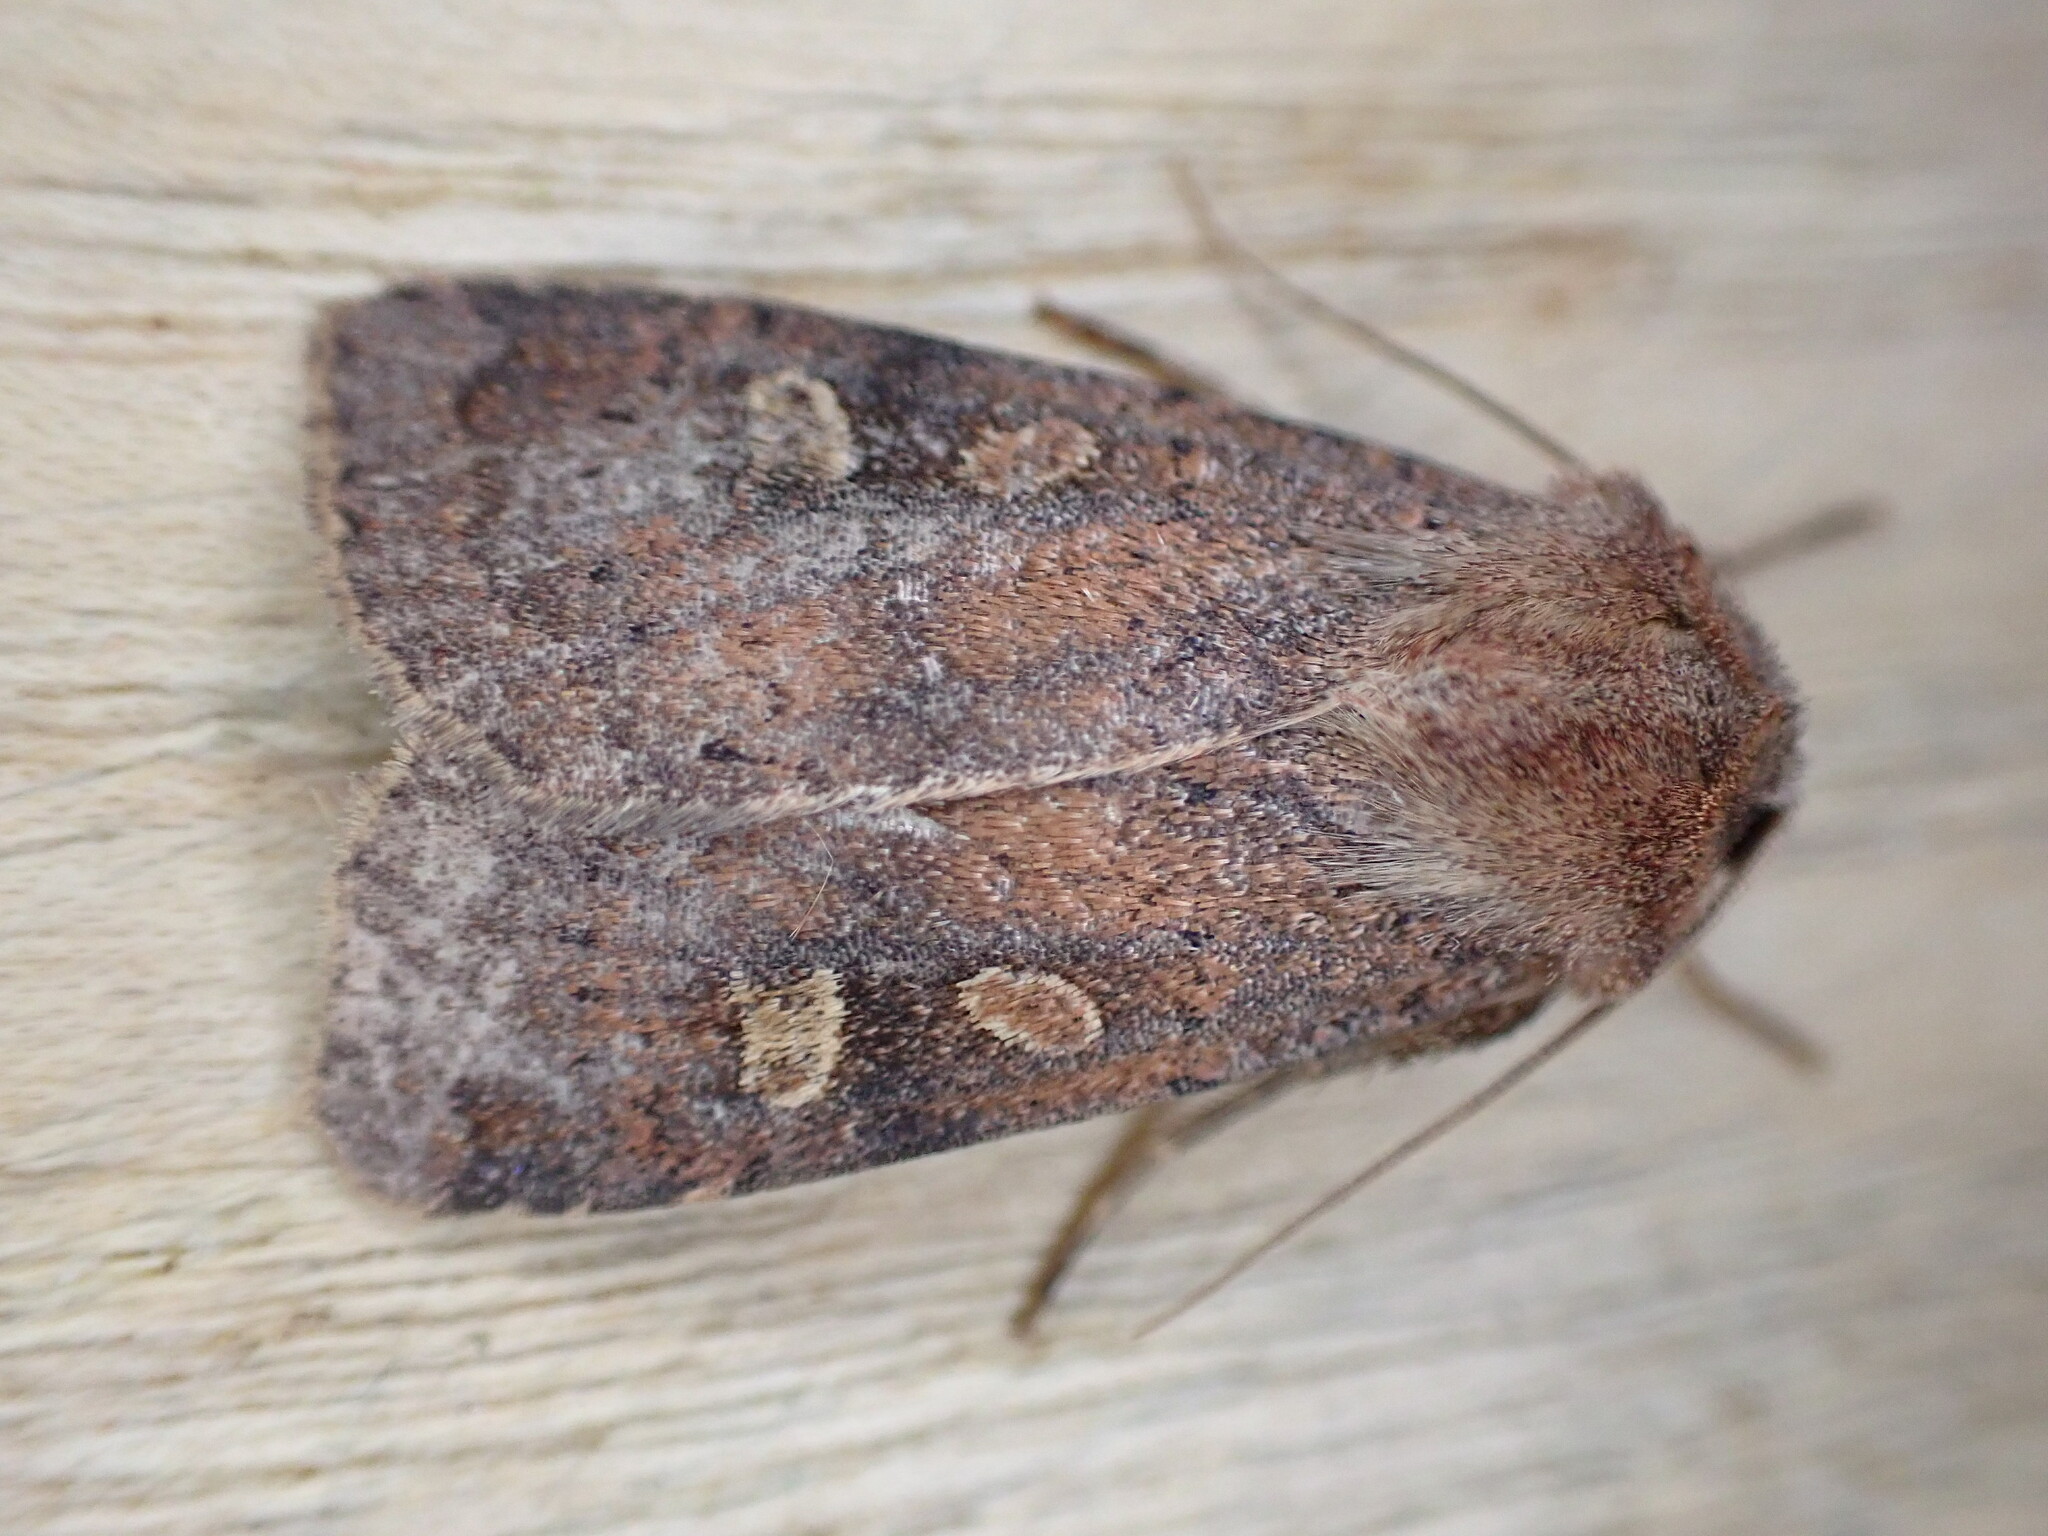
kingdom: Animalia
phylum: Arthropoda
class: Insecta
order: Lepidoptera
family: Noctuidae
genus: Xestia
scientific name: Xestia xanthographa
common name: Square-spot rustic
